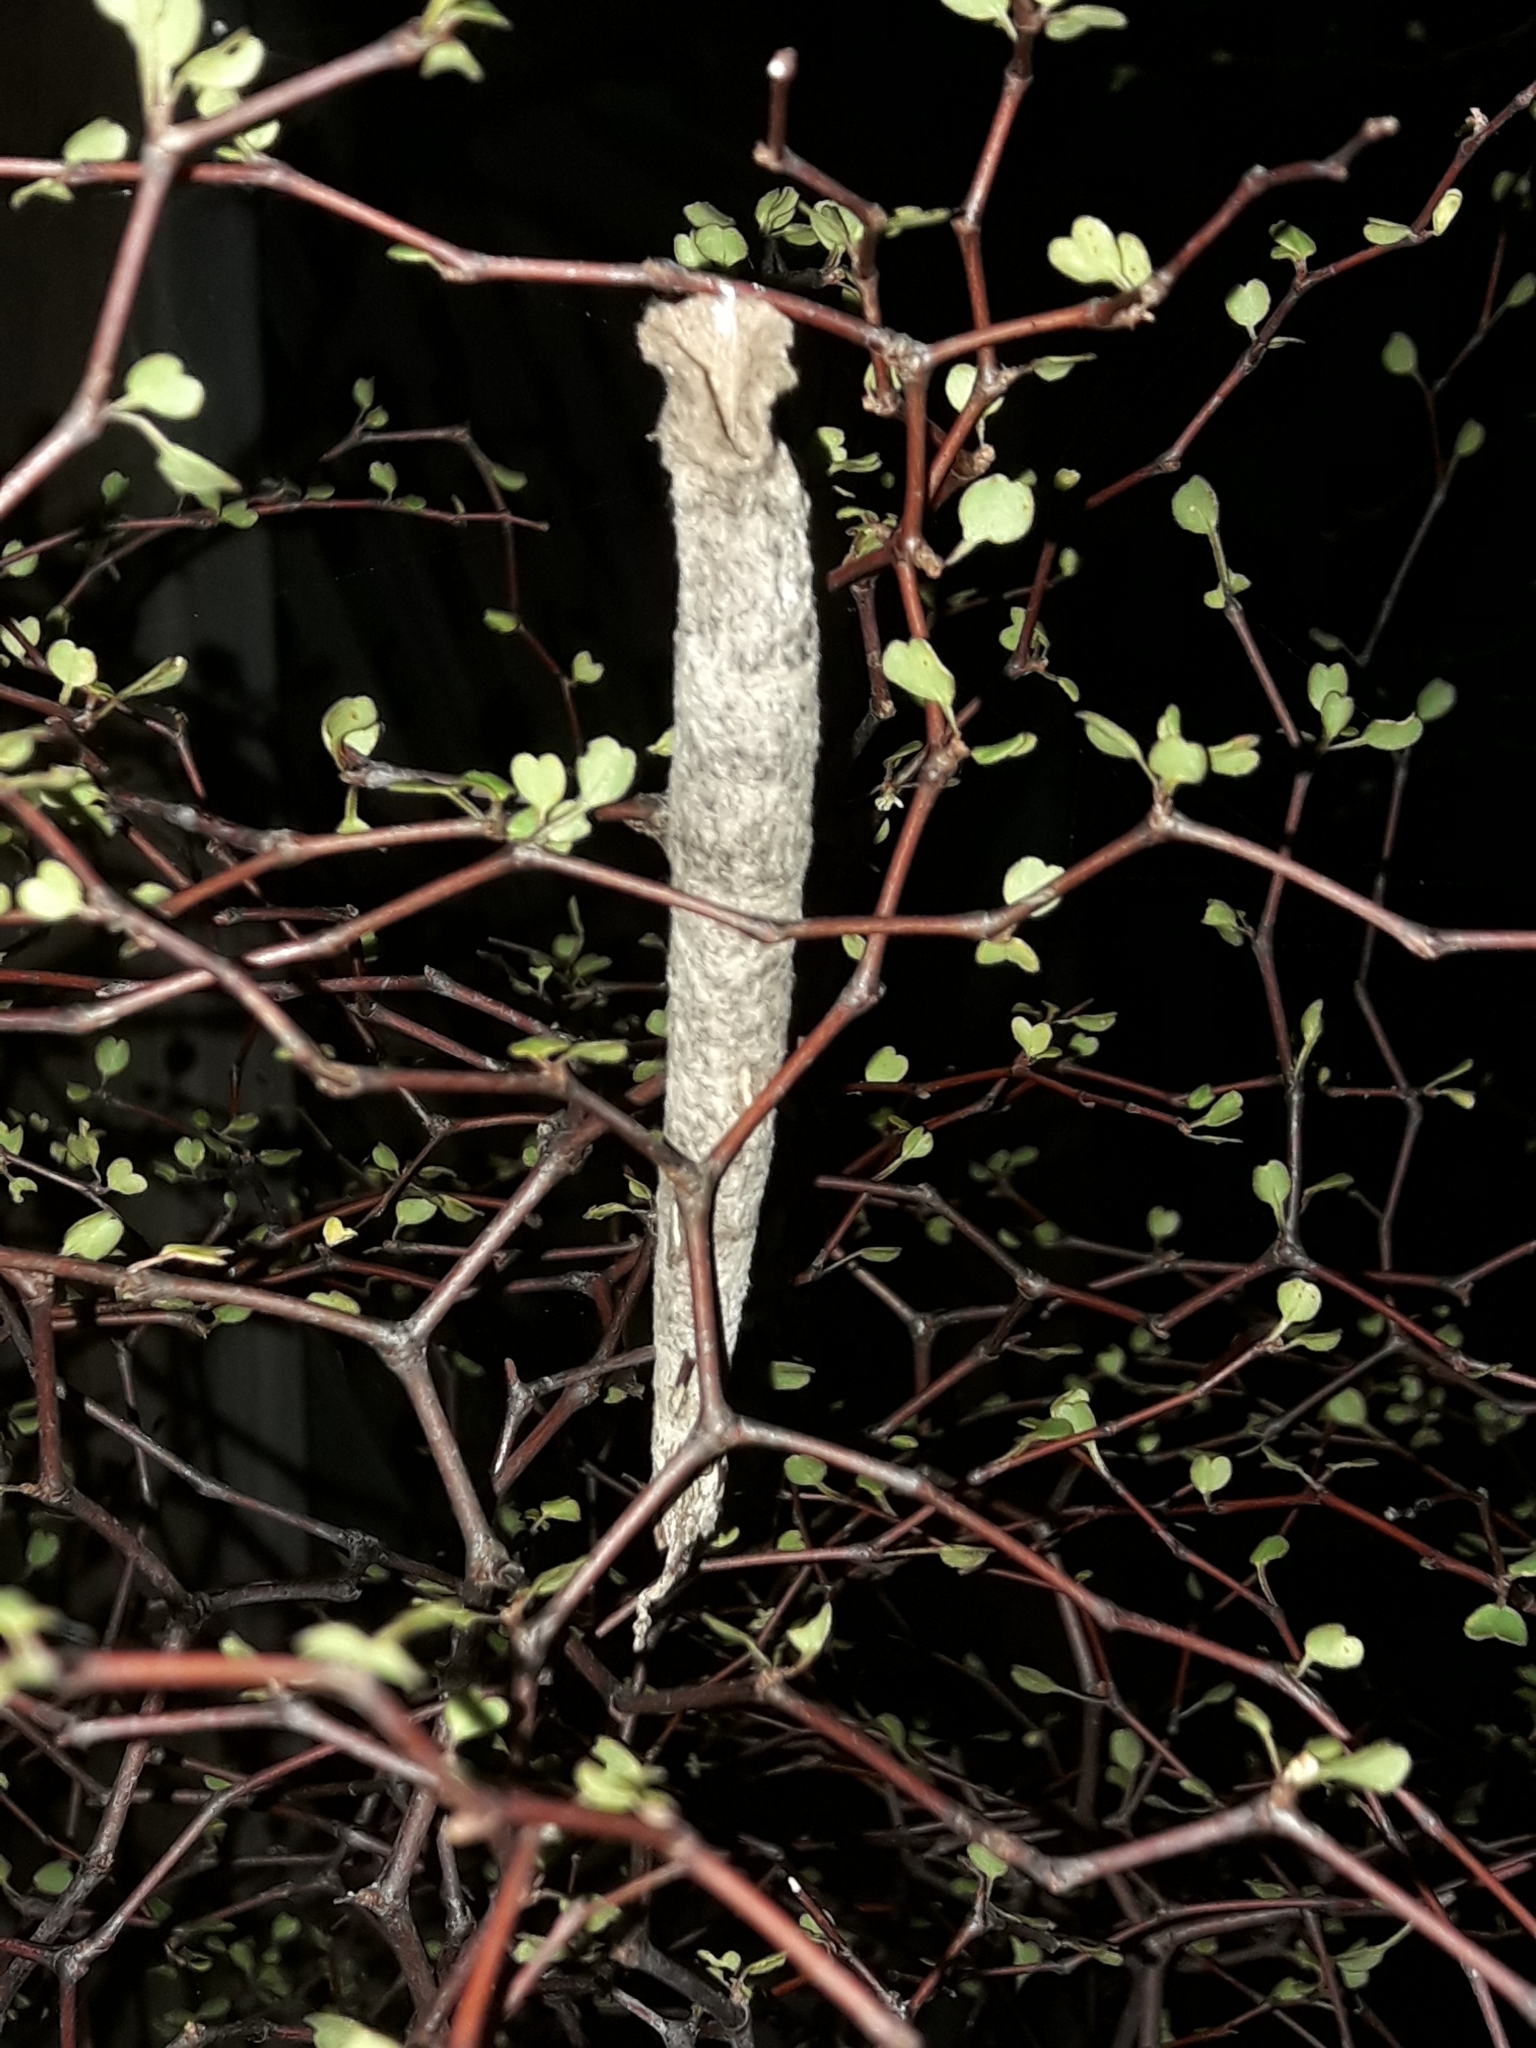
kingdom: Animalia
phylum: Arthropoda
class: Insecta
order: Lepidoptera
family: Psychidae
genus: Liothula
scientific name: Liothula omnivora
